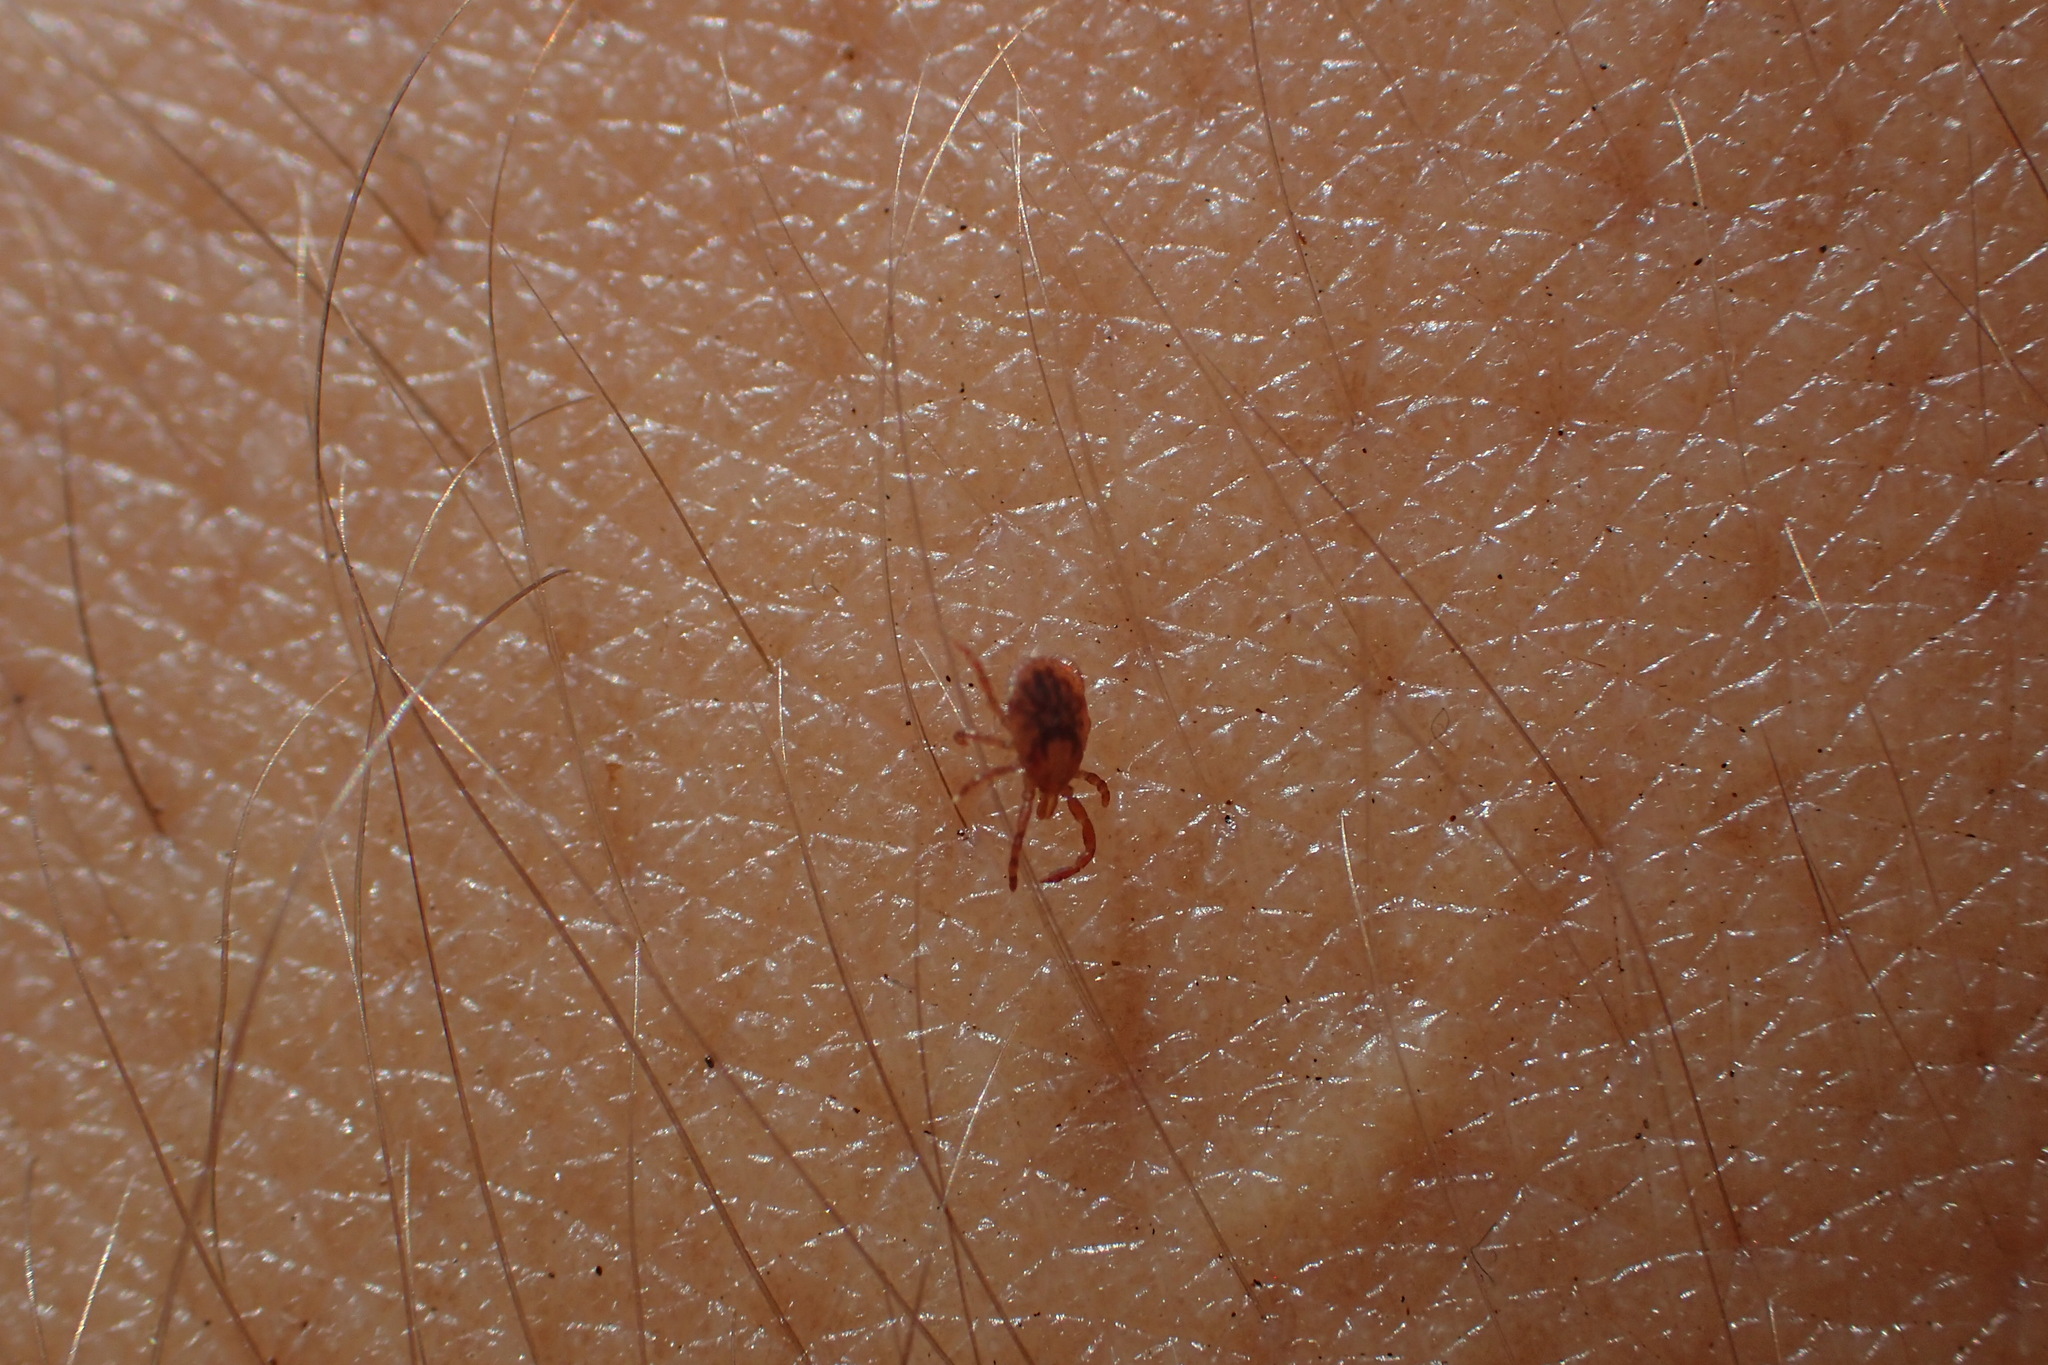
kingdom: Animalia
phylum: Arthropoda
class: Arachnida
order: Ixodida
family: Ixodidae
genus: Amblyomma
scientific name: Amblyomma americanum
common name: Lone star tick
